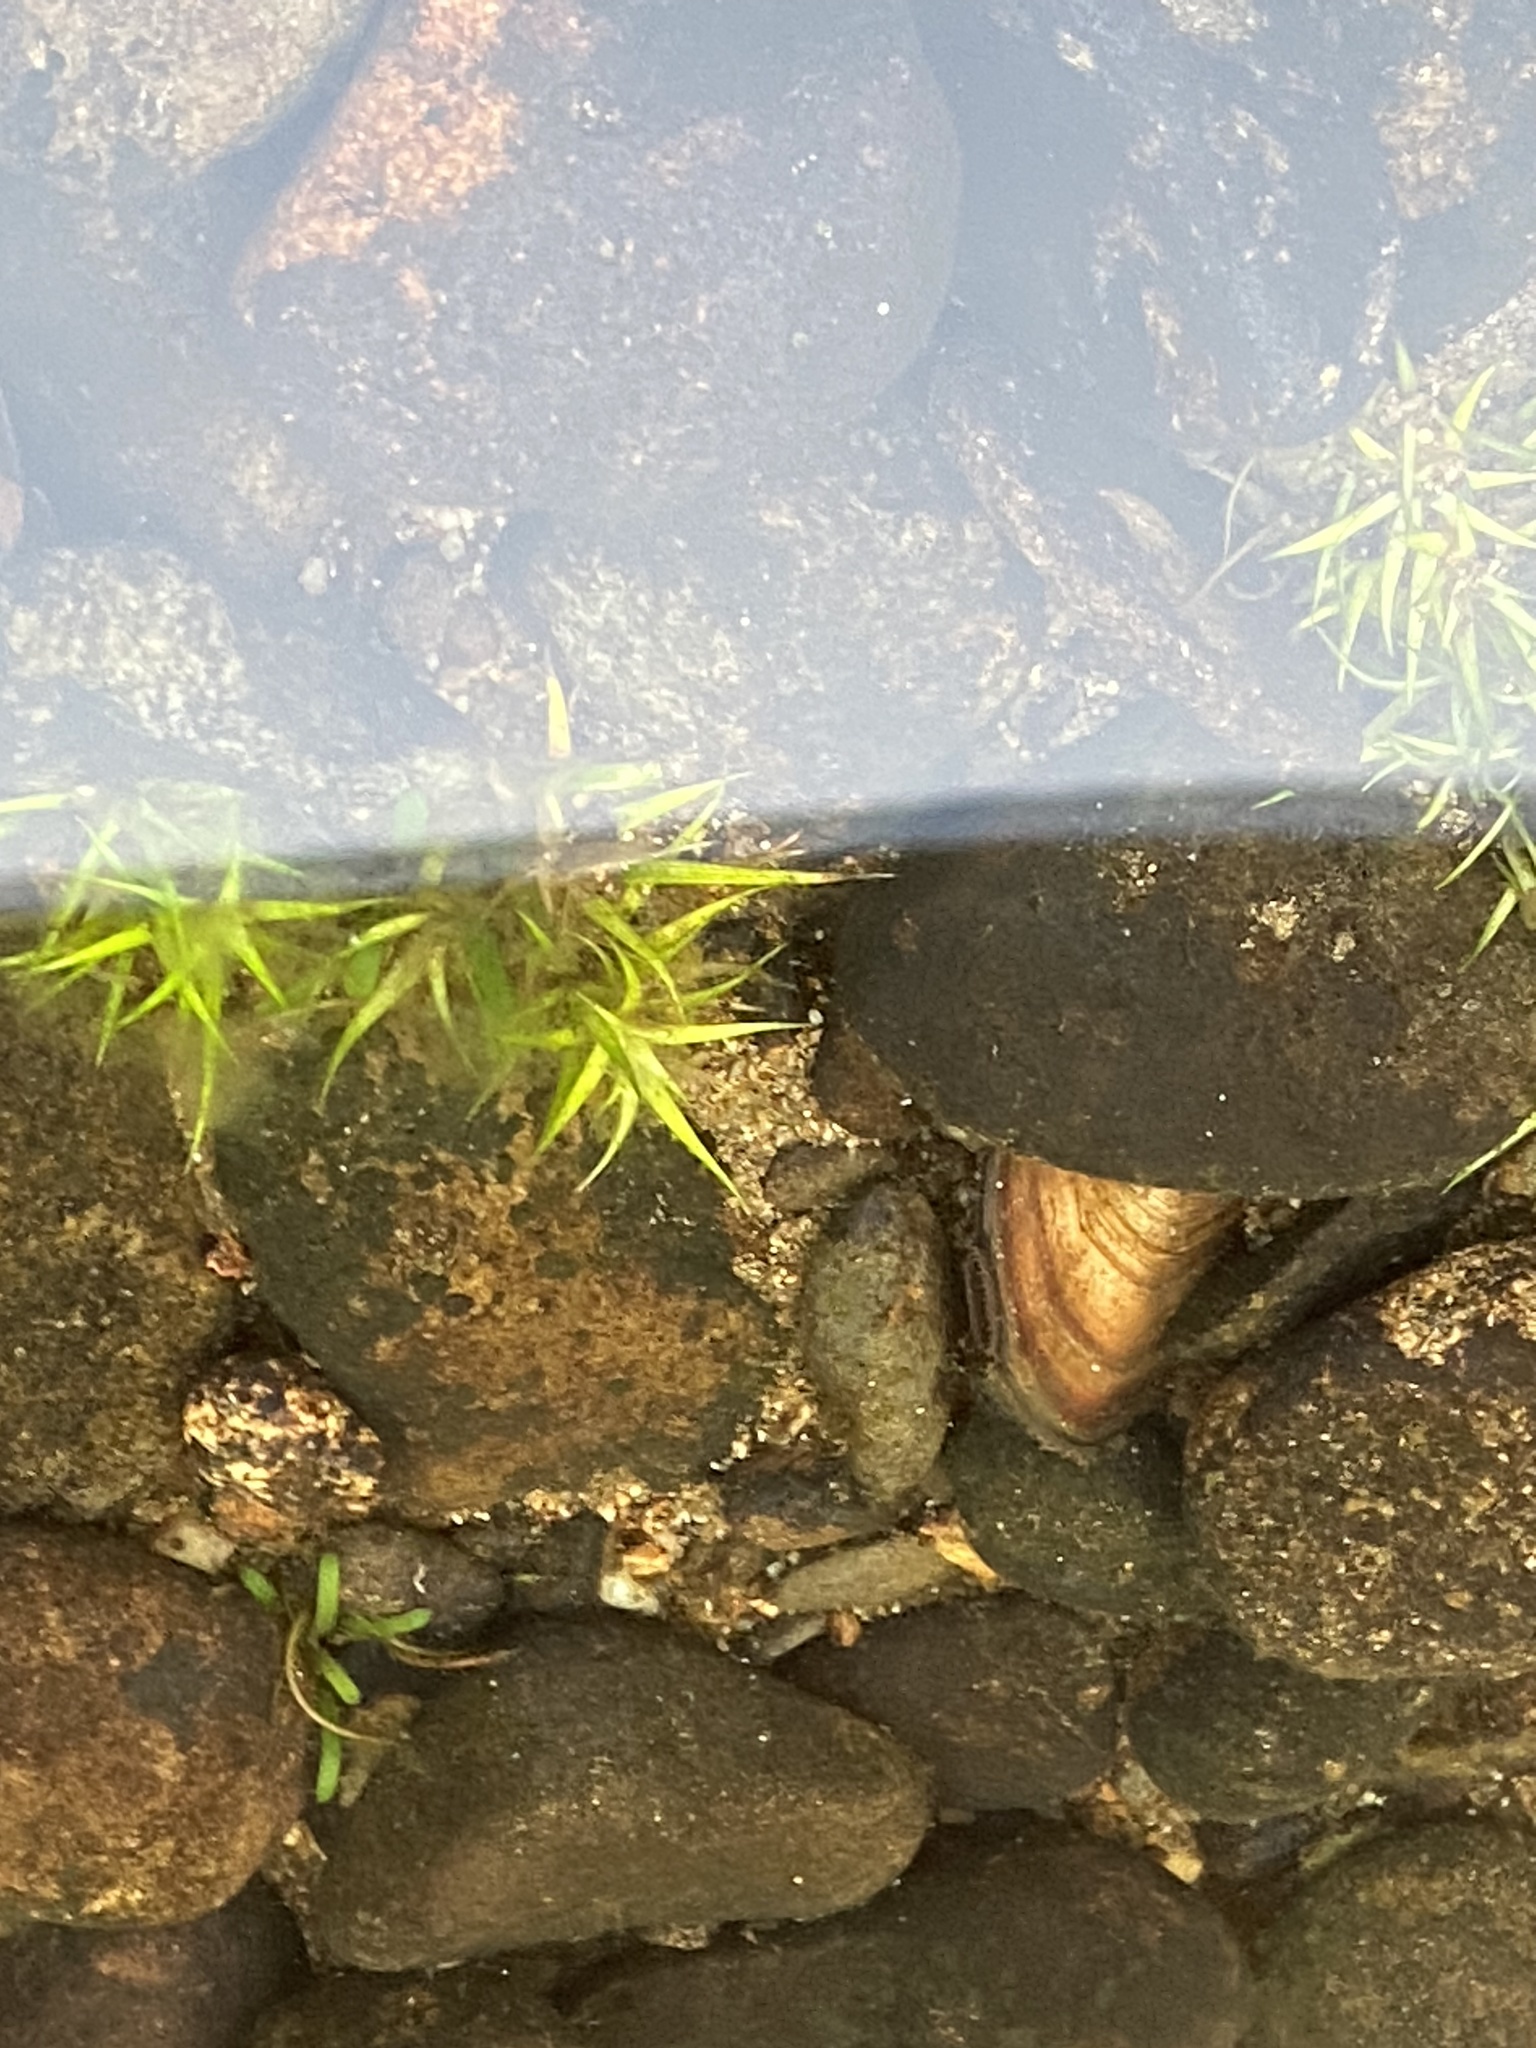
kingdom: Plantae
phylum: Tracheophyta
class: Liliopsida
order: Poales
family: Eriocaulaceae
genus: Eriocaulon
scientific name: Eriocaulon aquaticum
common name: Pipewort
